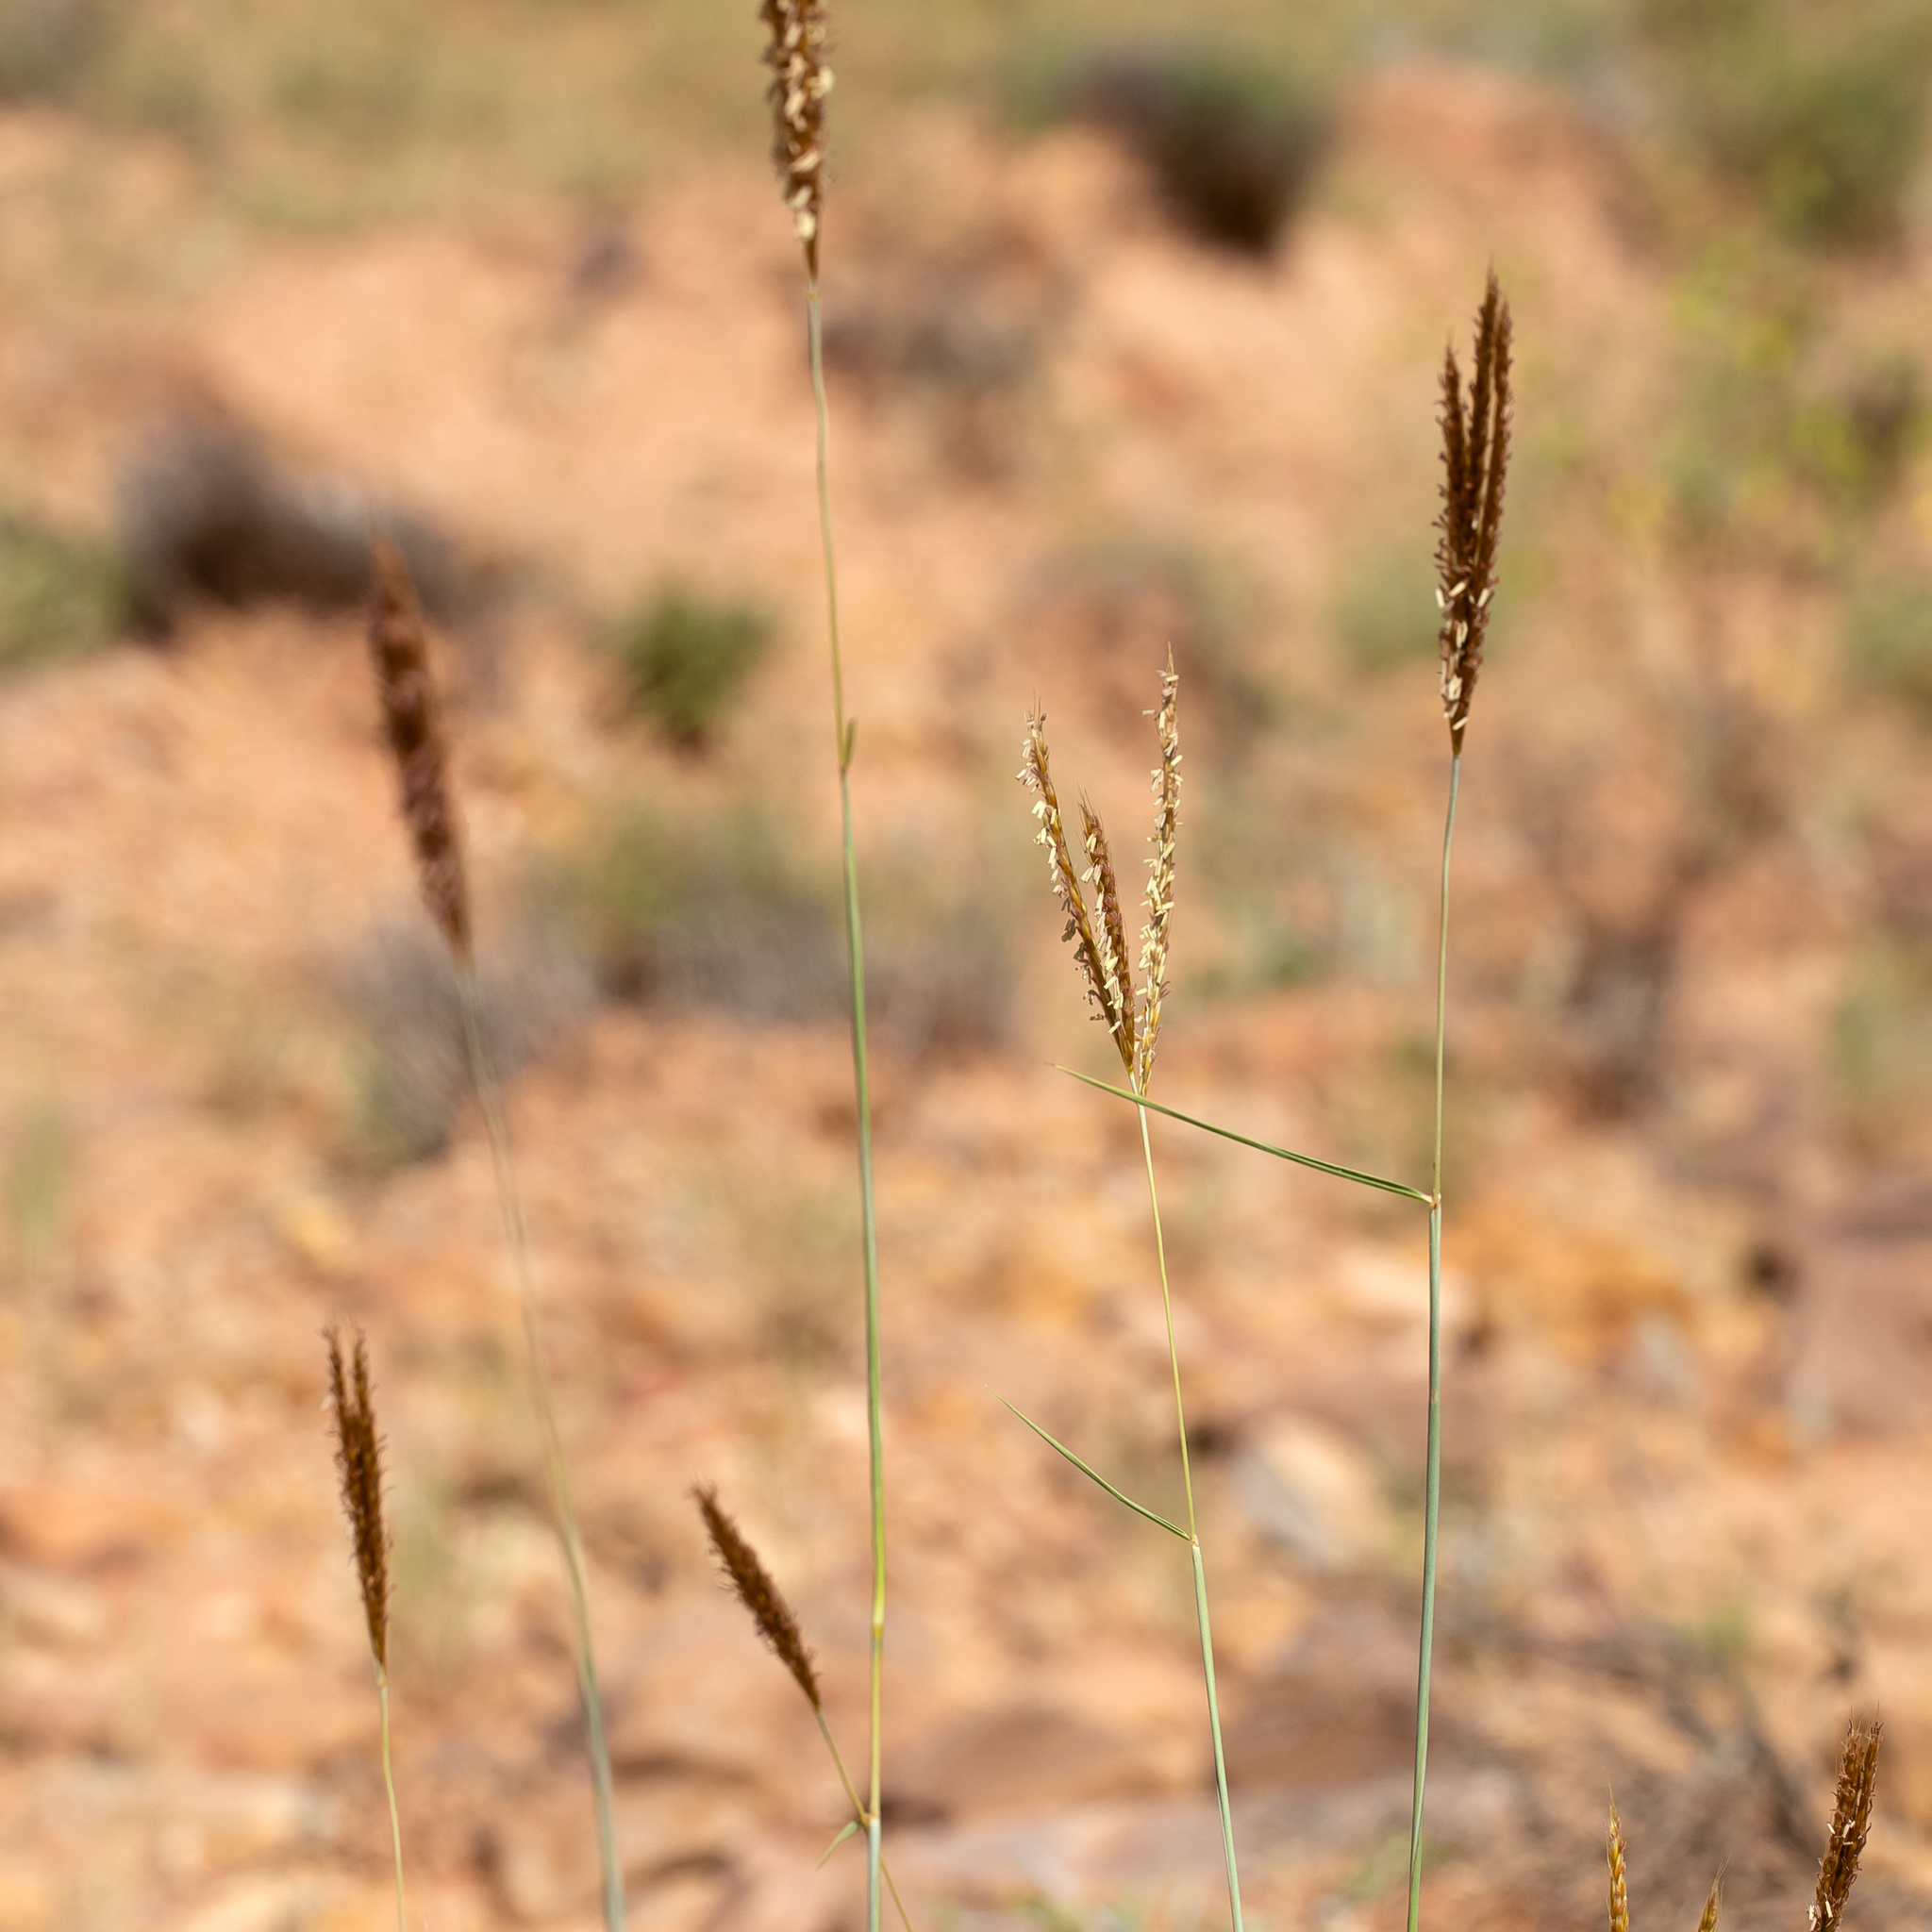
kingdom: Plantae
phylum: Tracheophyta
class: Liliopsida
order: Poales
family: Poaceae
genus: Eulalia
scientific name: Eulalia aurea
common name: Silky browntop
